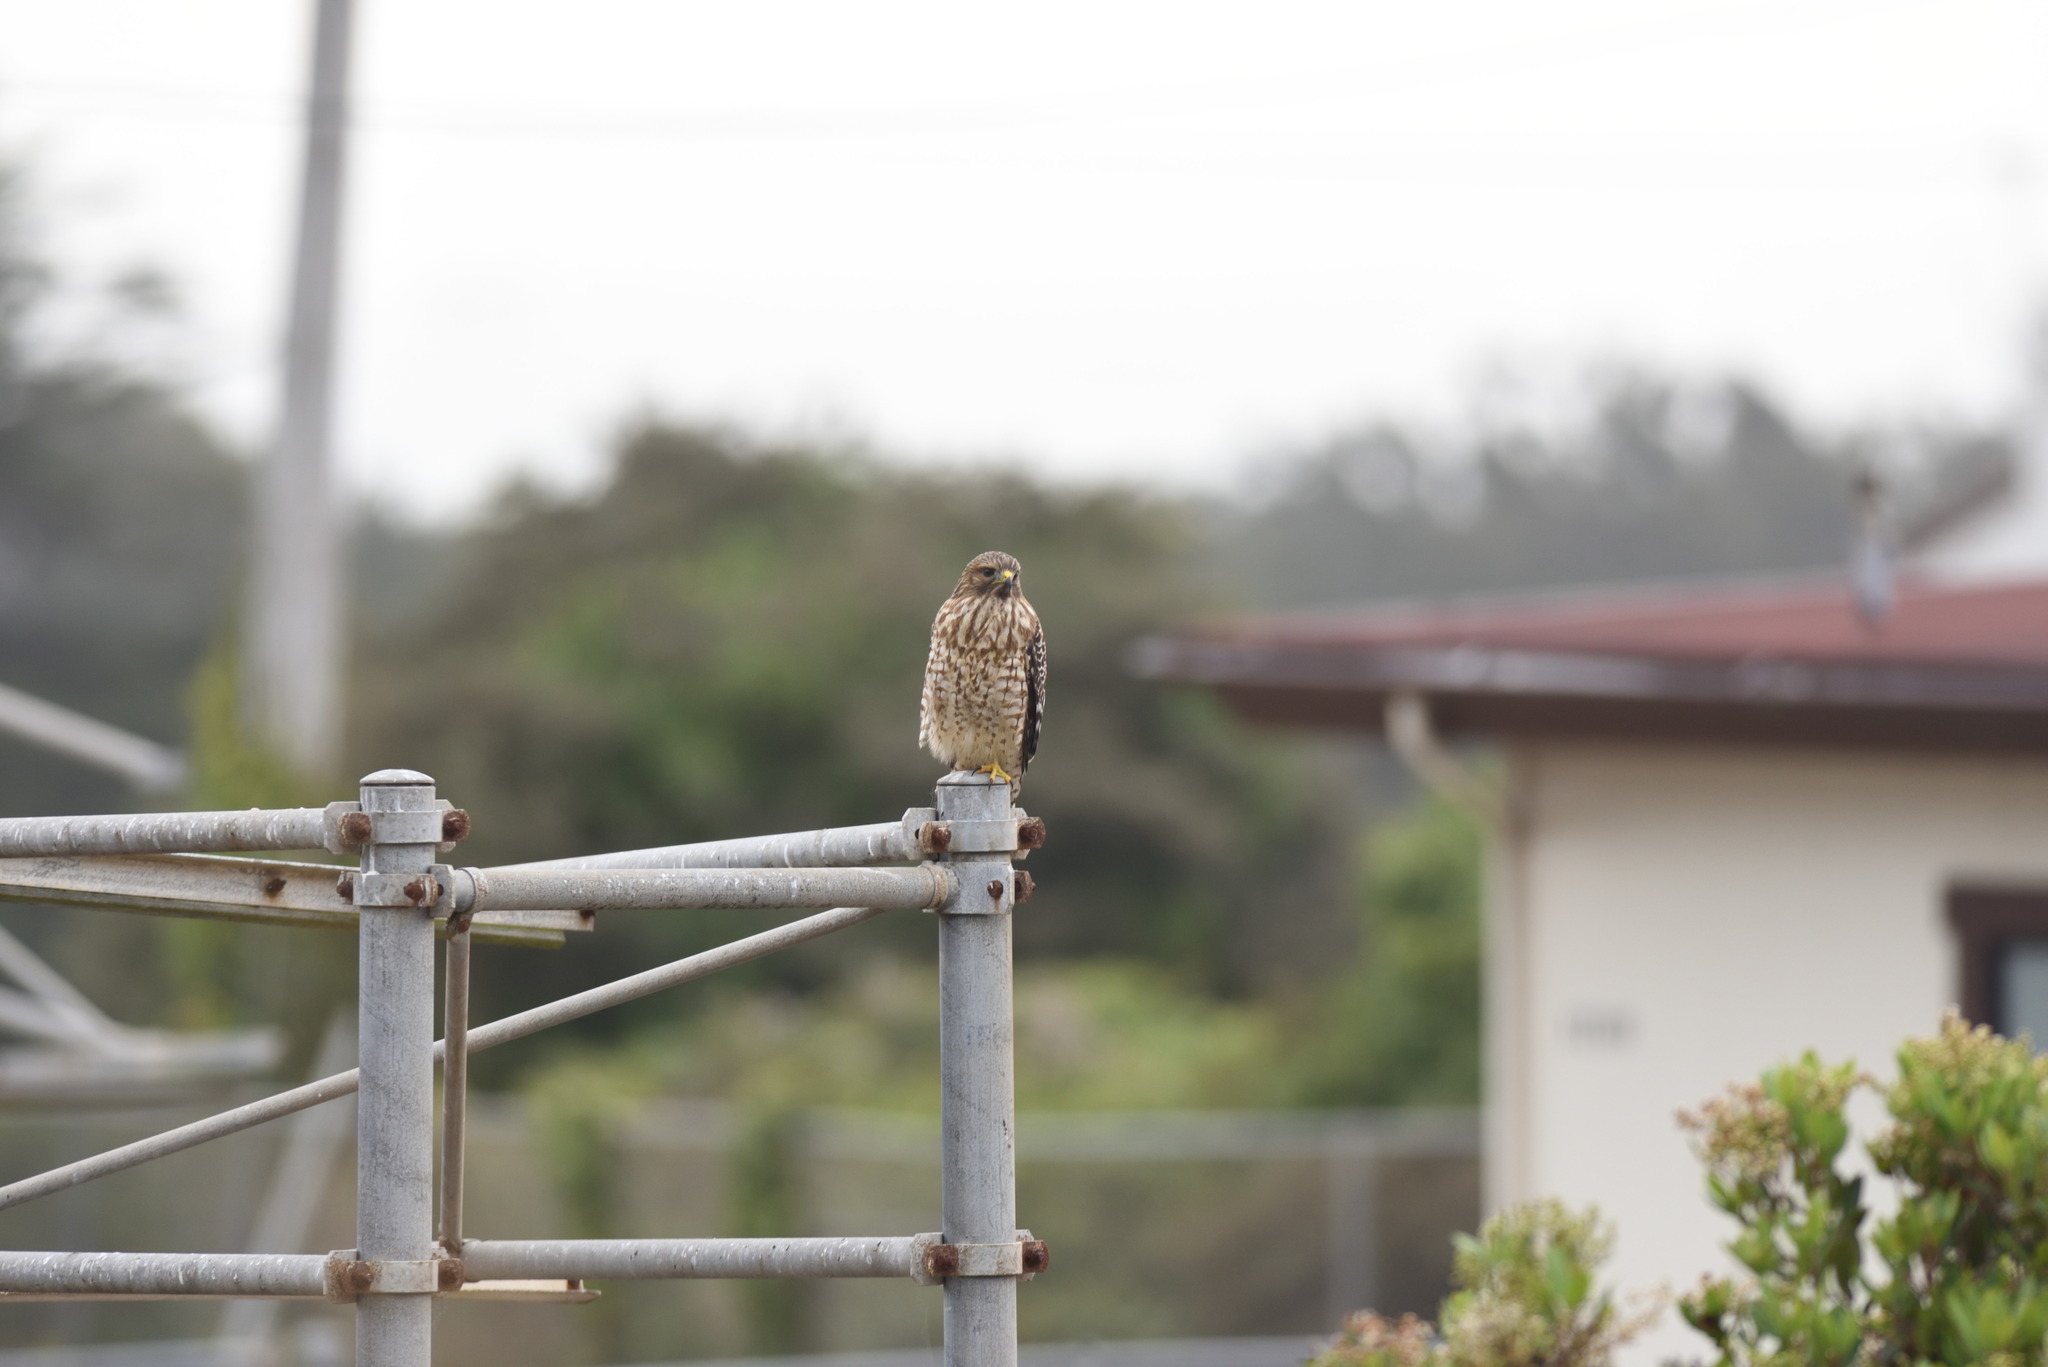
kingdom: Animalia
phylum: Chordata
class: Aves
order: Accipitriformes
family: Accipitridae
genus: Buteo
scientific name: Buteo lineatus
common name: Red-shouldered hawk
